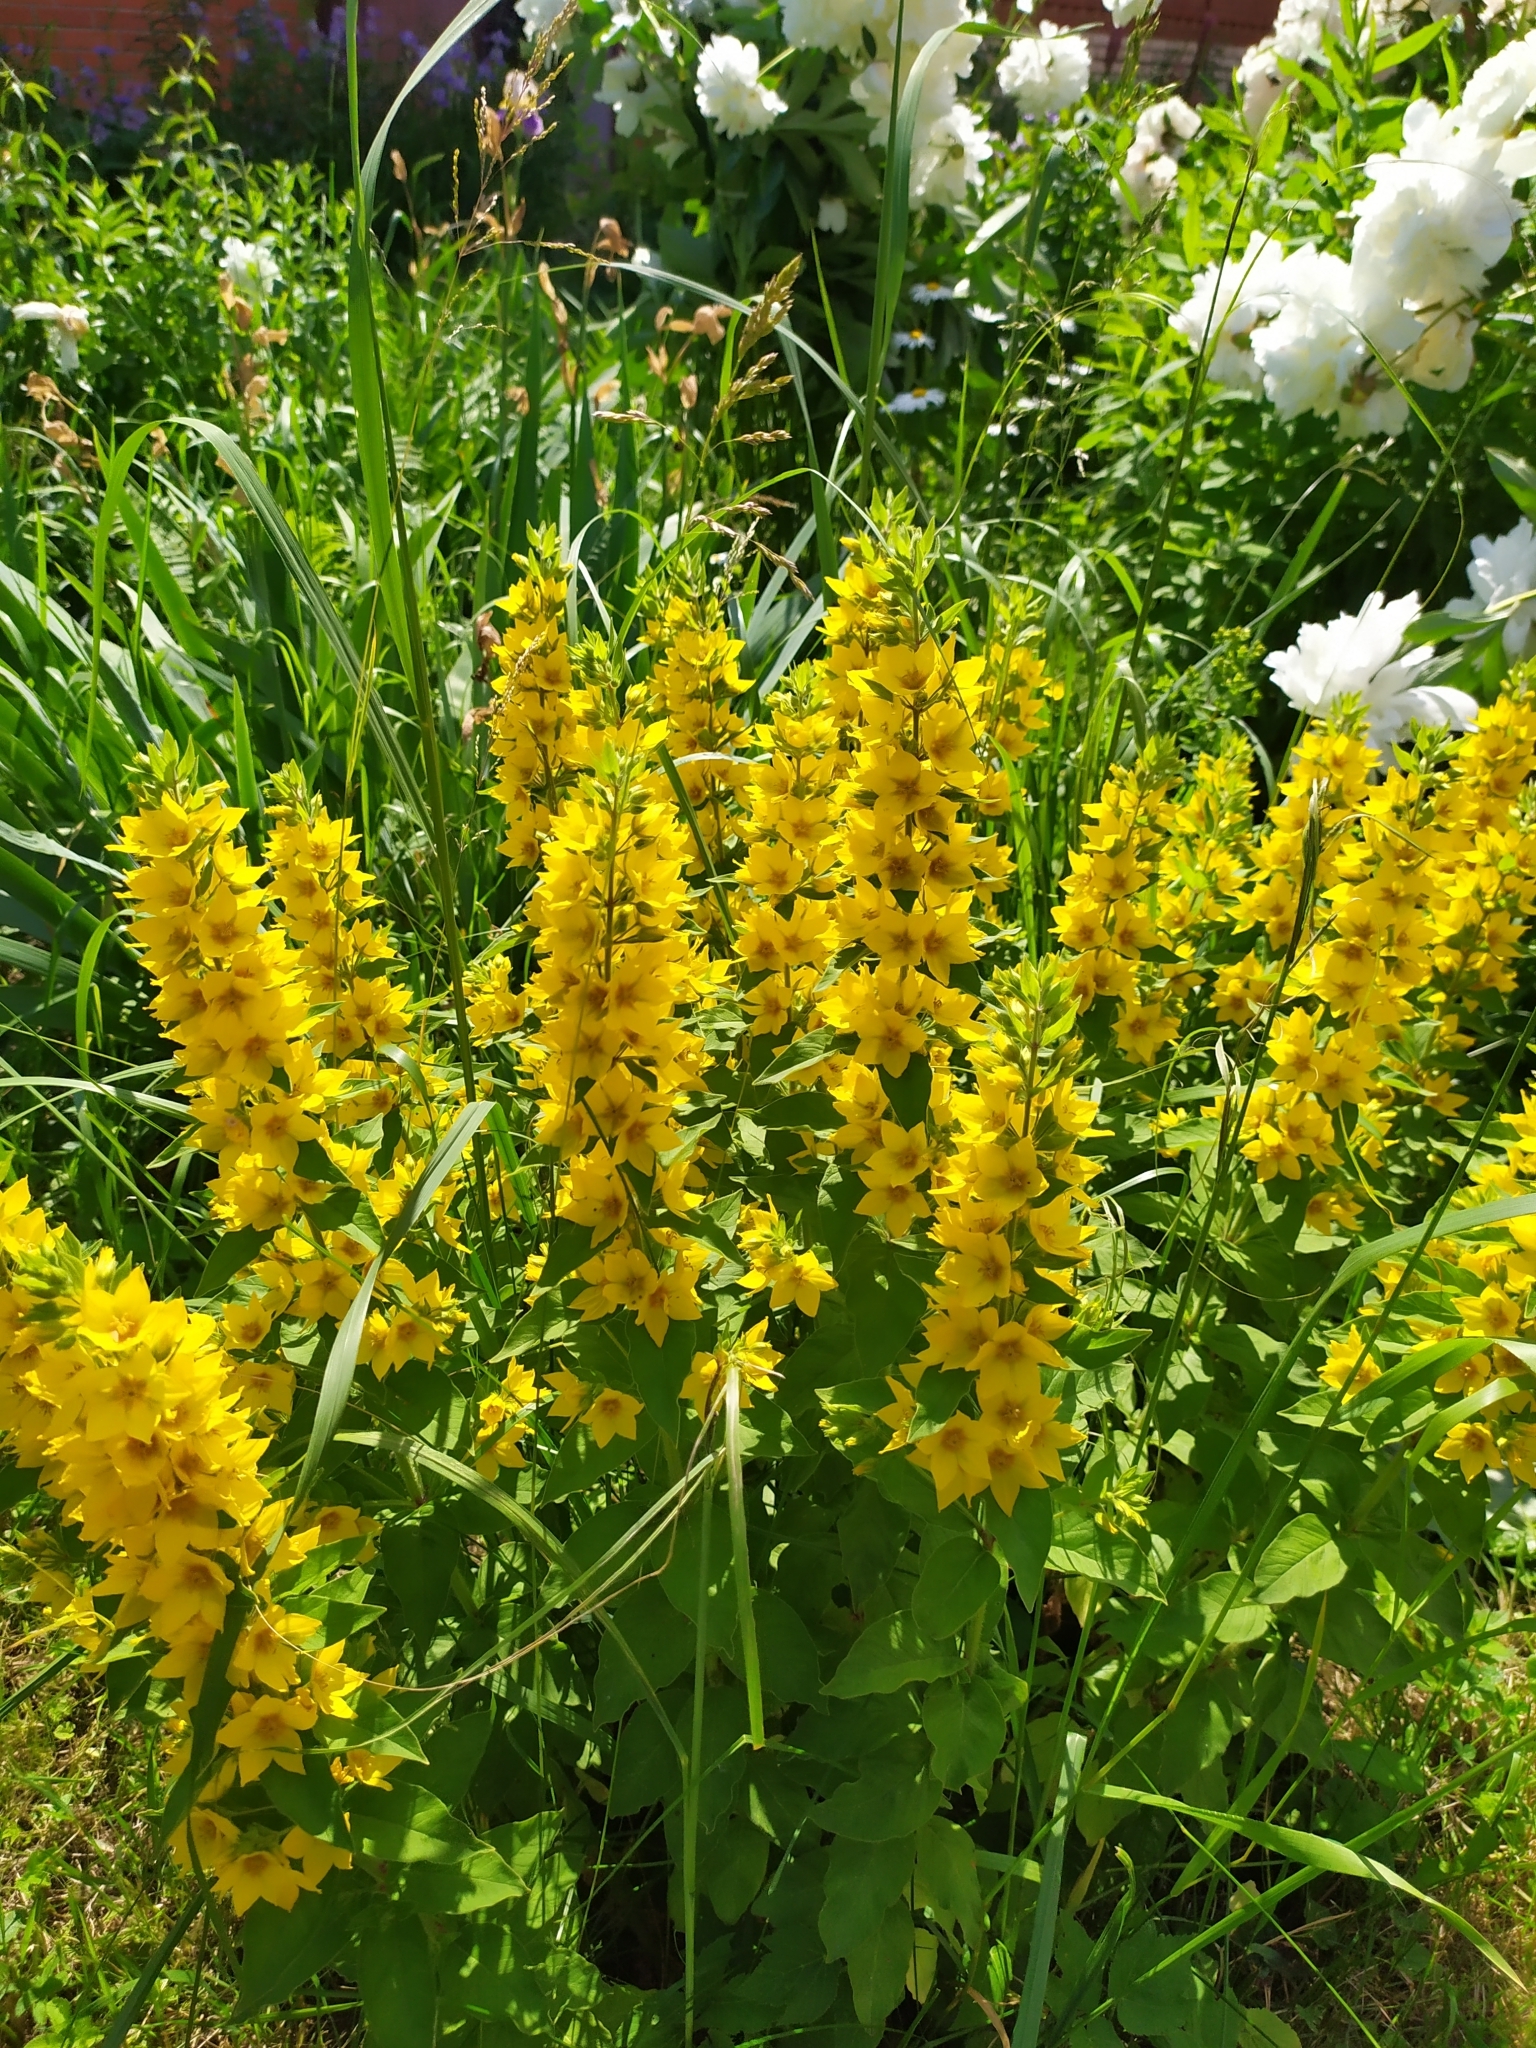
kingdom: Plantae
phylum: Tracheophyta
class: Magnoliopsida
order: Ericales
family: Primulaceae
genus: Lysimachia
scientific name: Lysimachia punctata
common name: Dotted loosestrife
